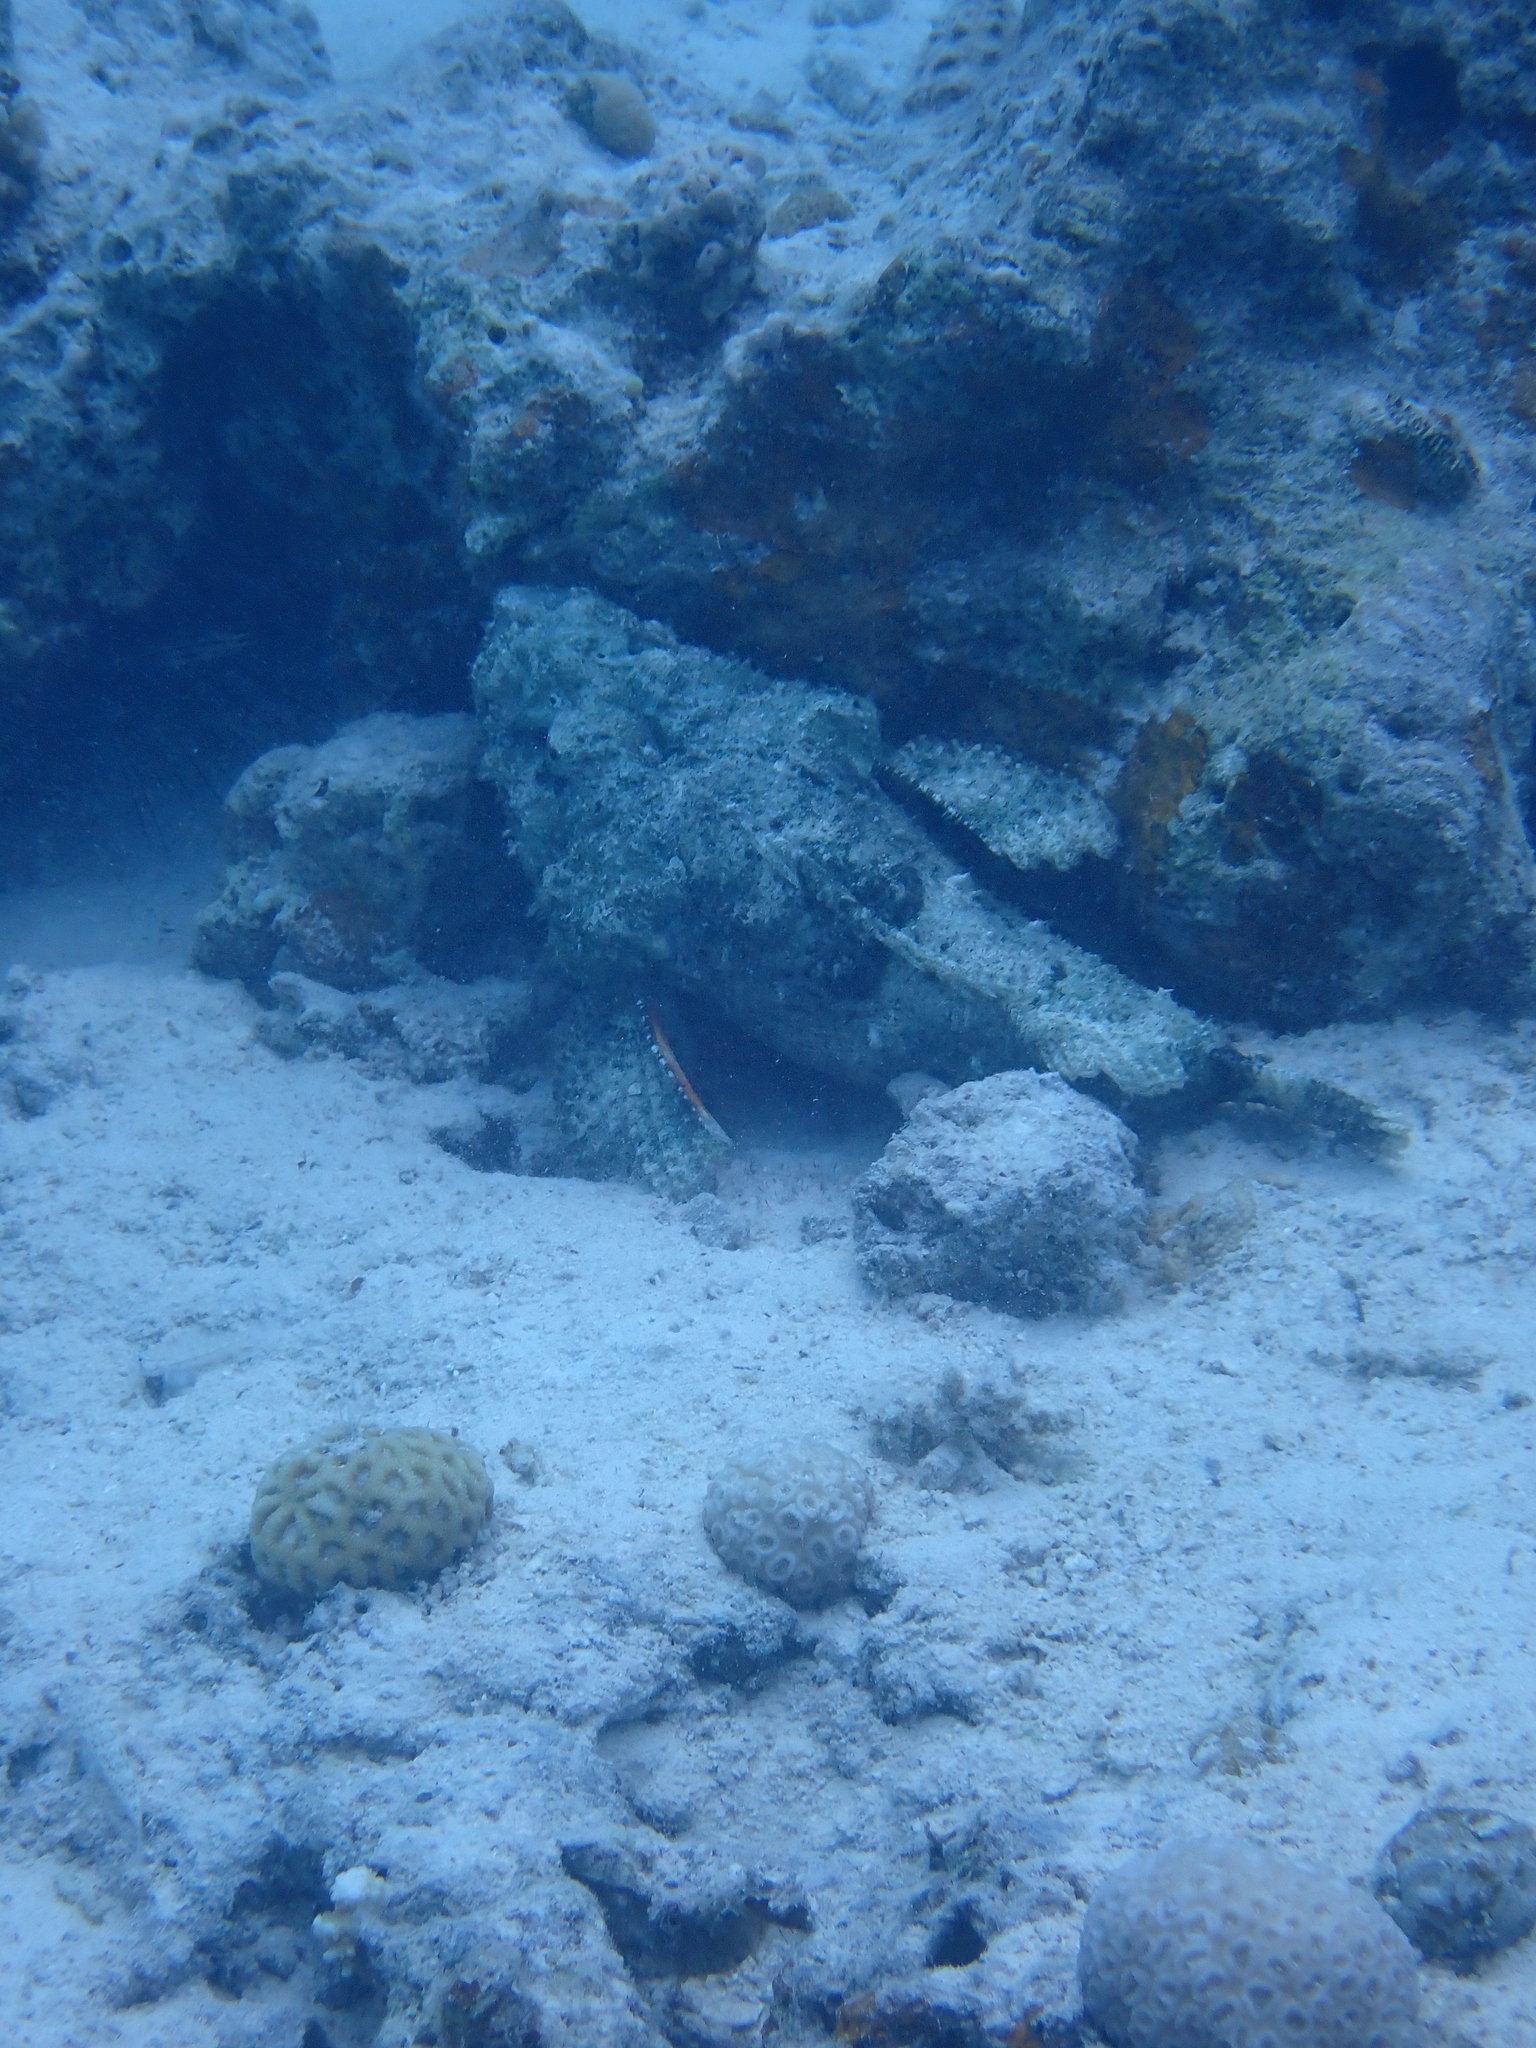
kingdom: Animalia
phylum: Chordata
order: Scorpaeniformes
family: Scorpaenidae
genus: Scorpaenopsis
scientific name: Scorpaenopsis diabolus
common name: False stonefish
